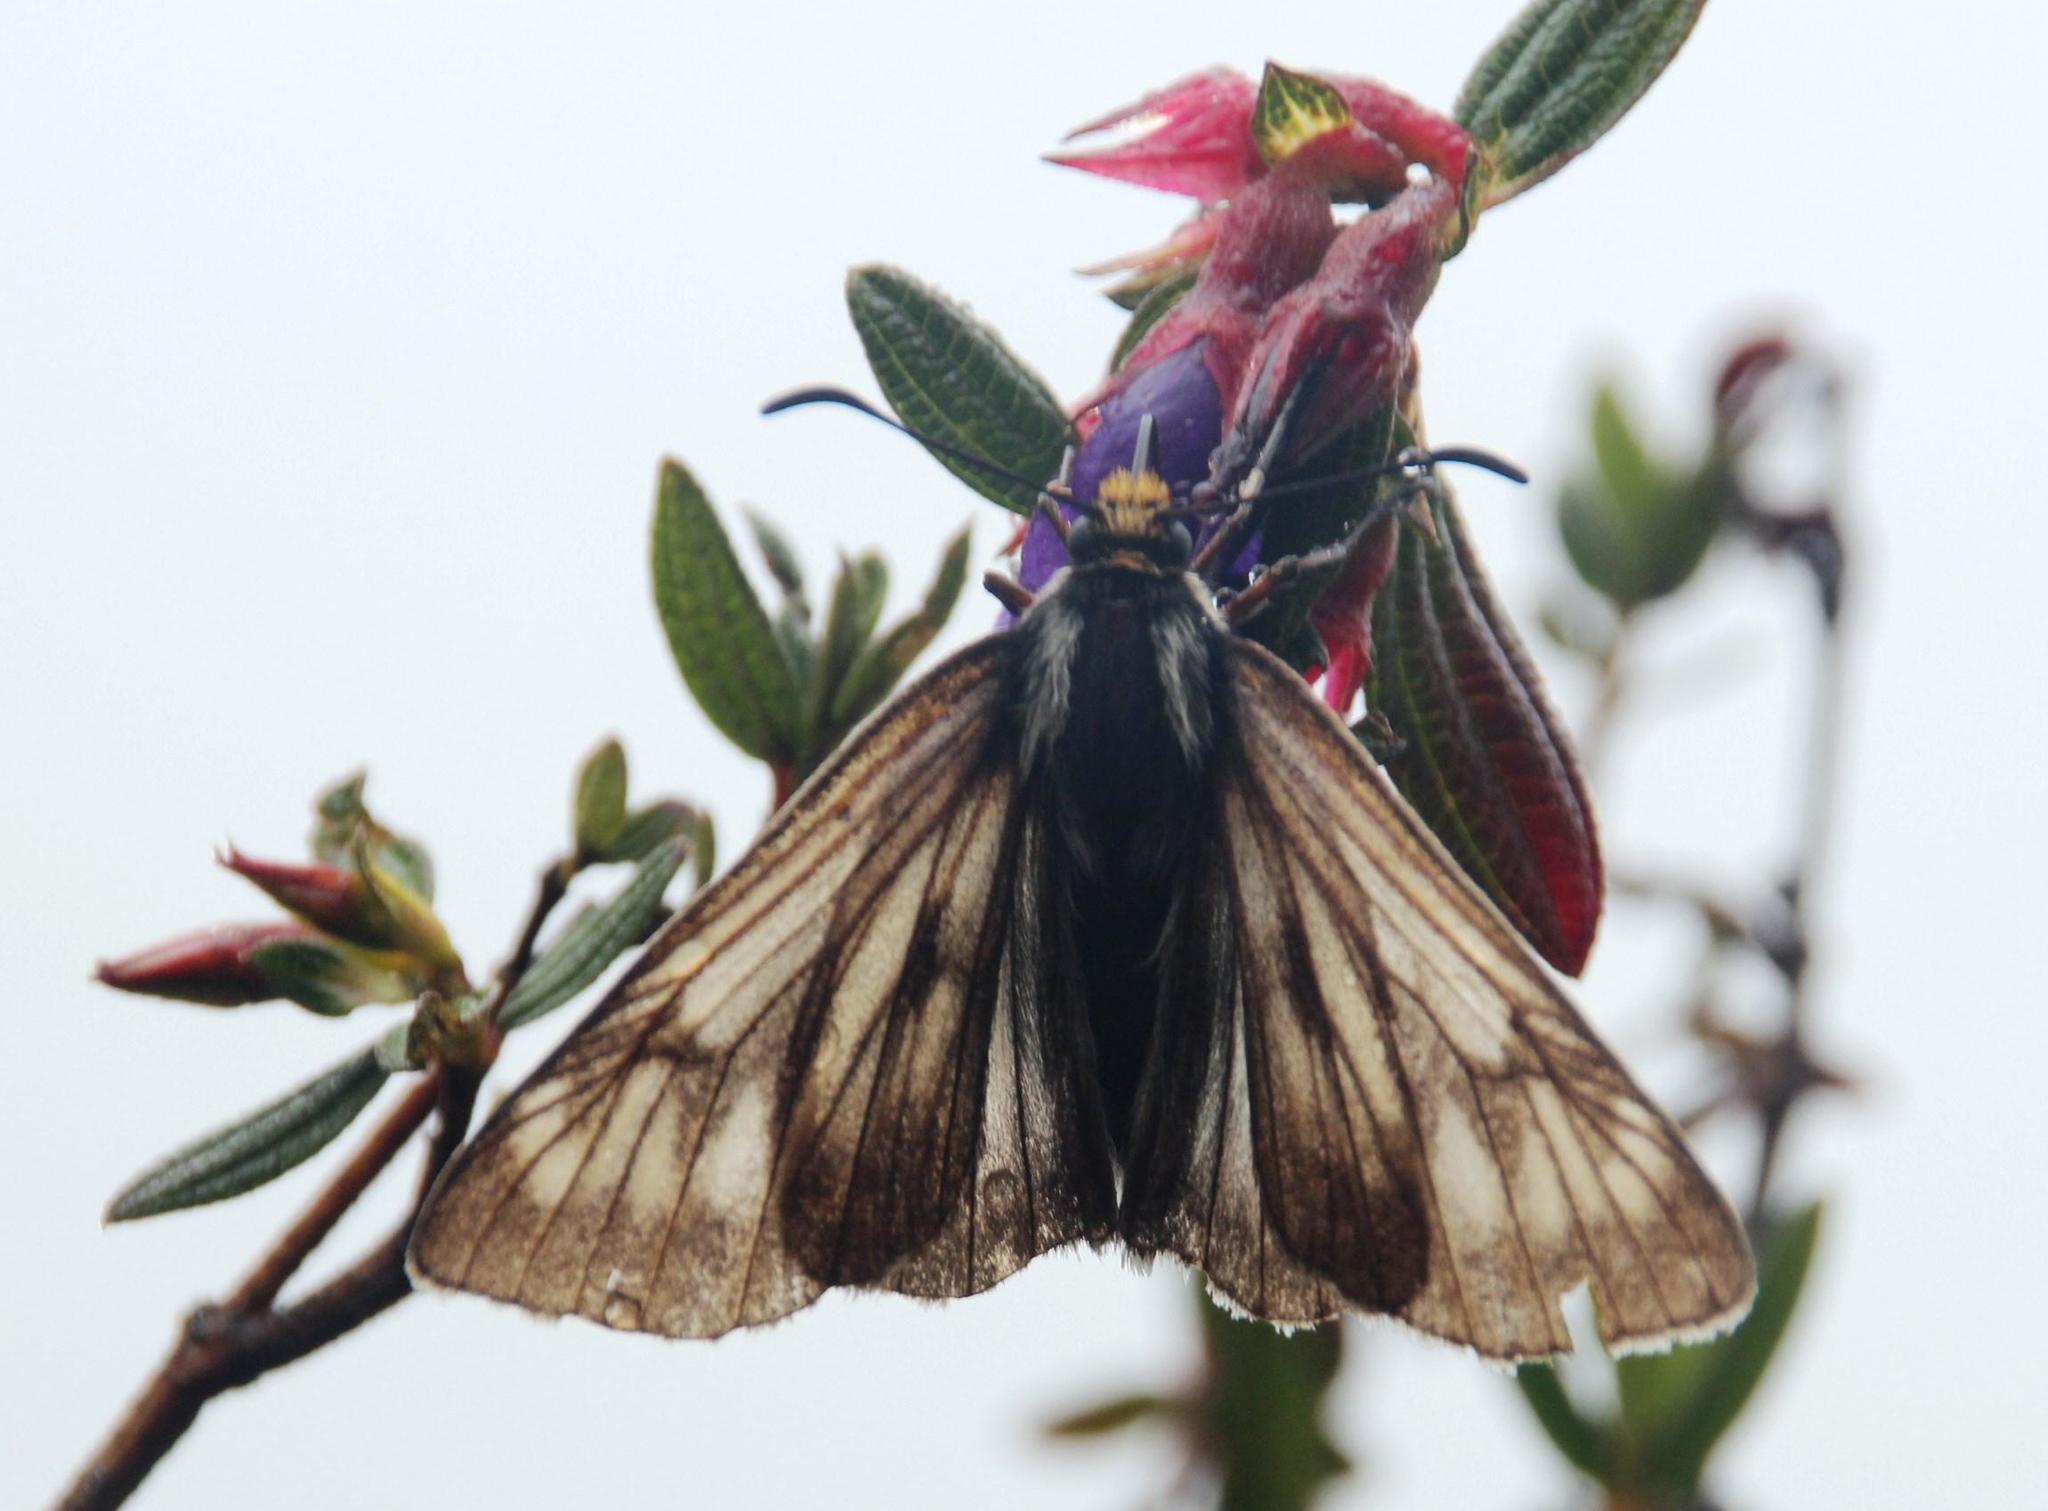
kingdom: Animalia
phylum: Arthropoda
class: Insecta
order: Lepidoptera
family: Hesperiidae
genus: Metardaris
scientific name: Metardaris cosinga
